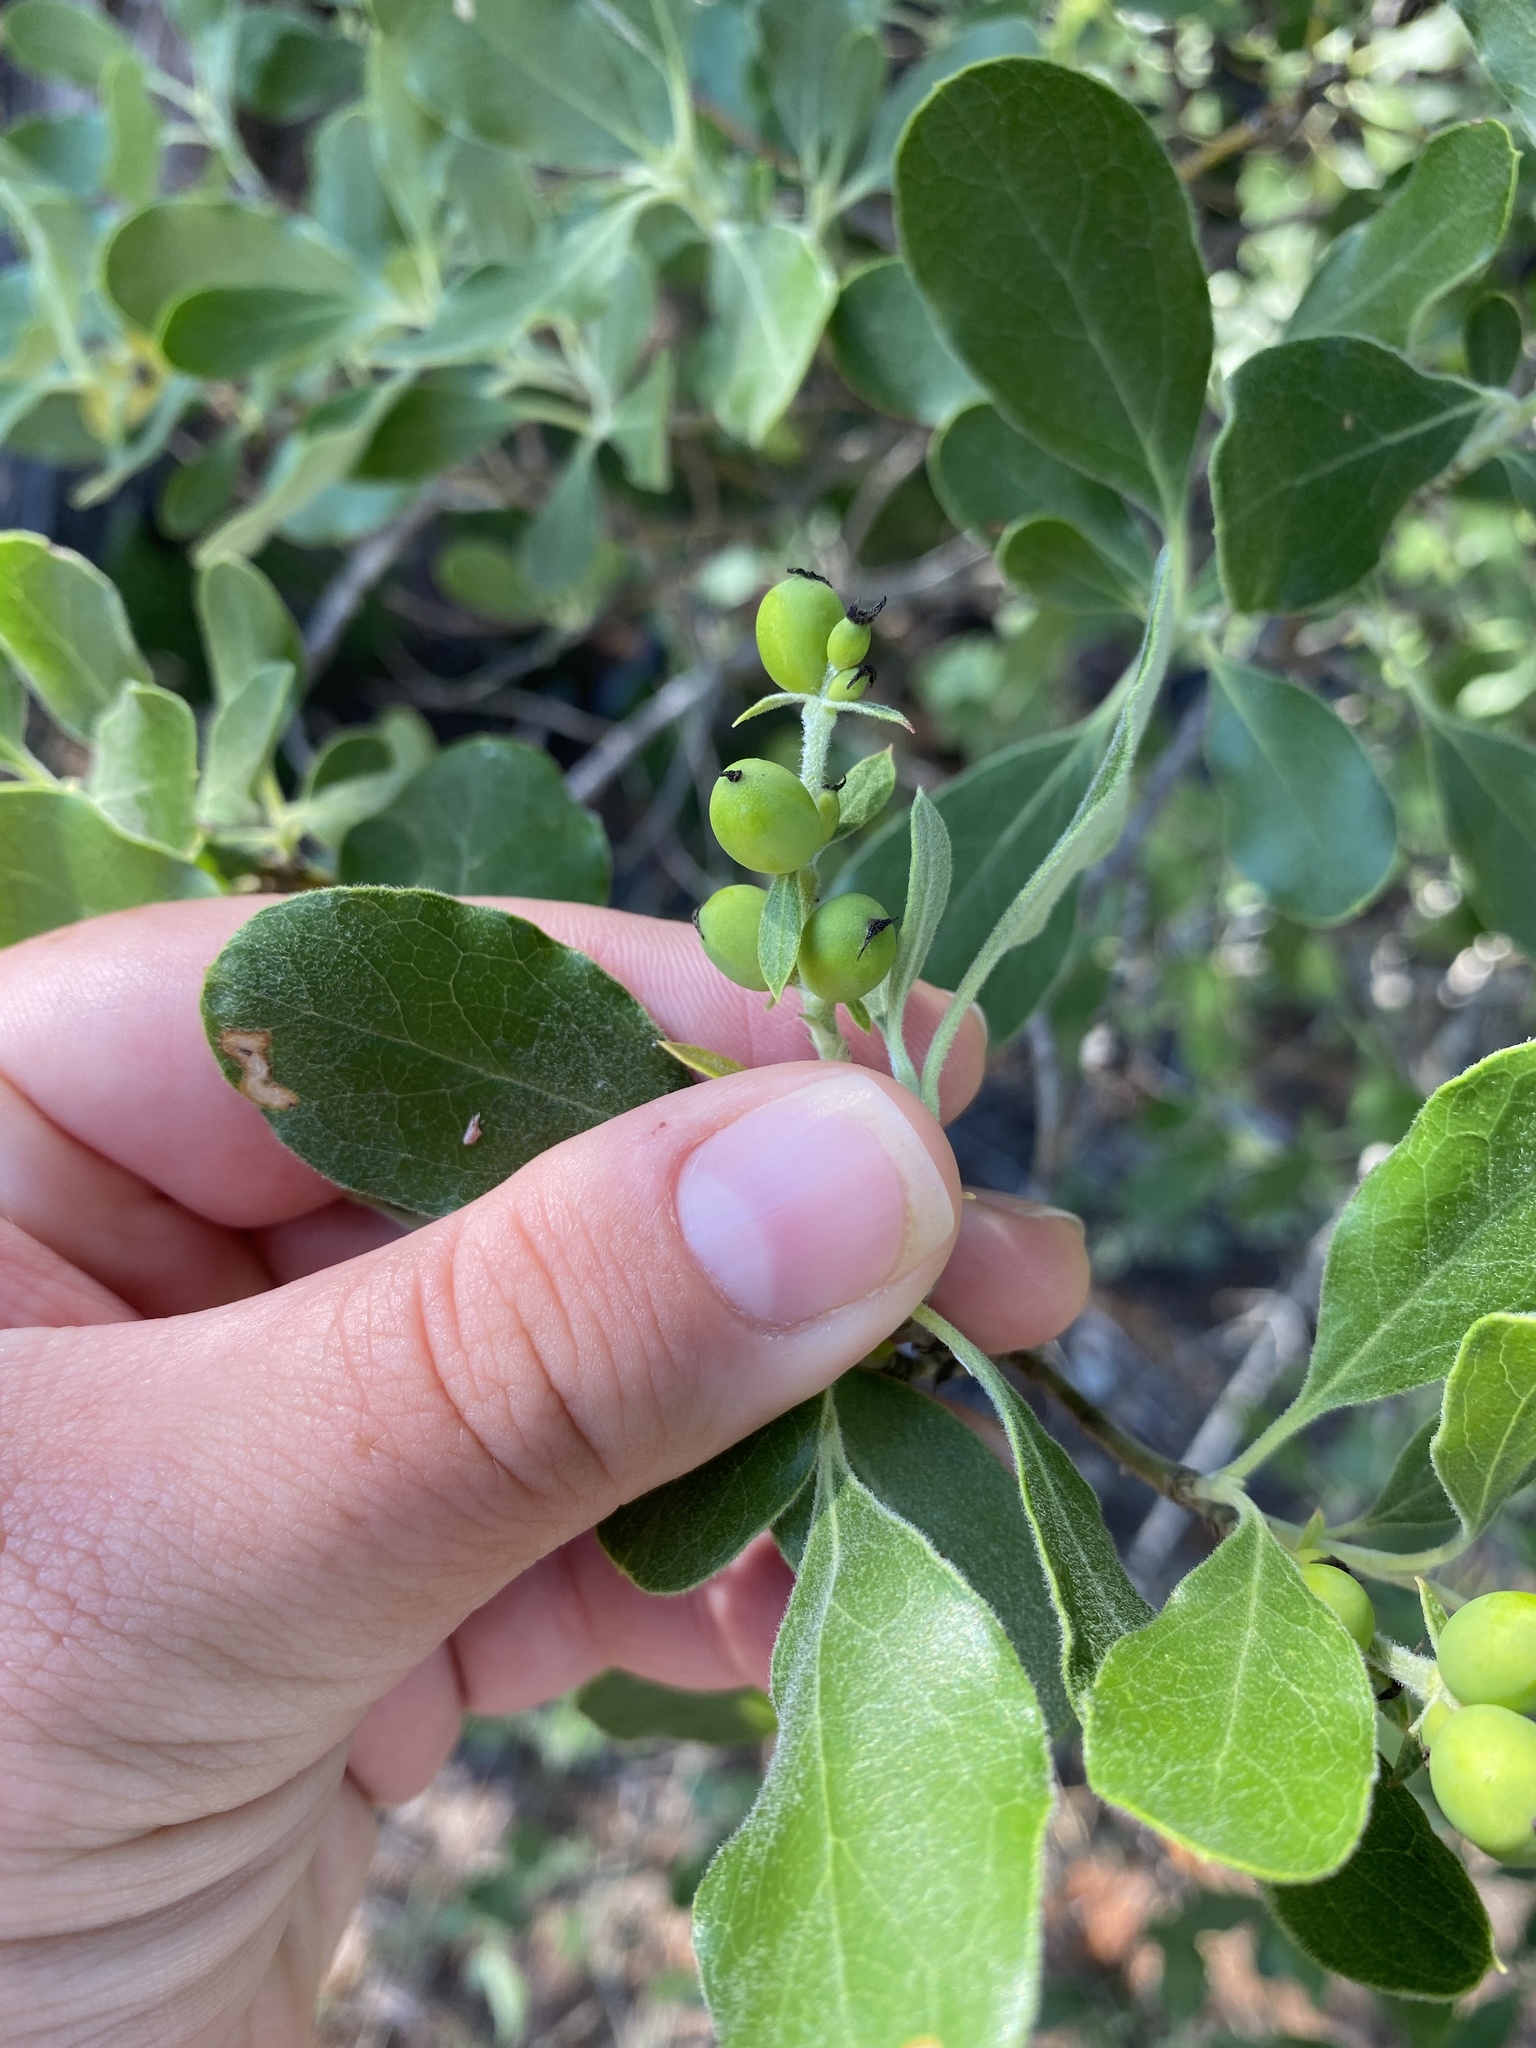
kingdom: Plantae
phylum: Tracheophyta
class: Magnoliopsida
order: Garryales
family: Garryaceae
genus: Garrya
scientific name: Garrya lindheimeri
